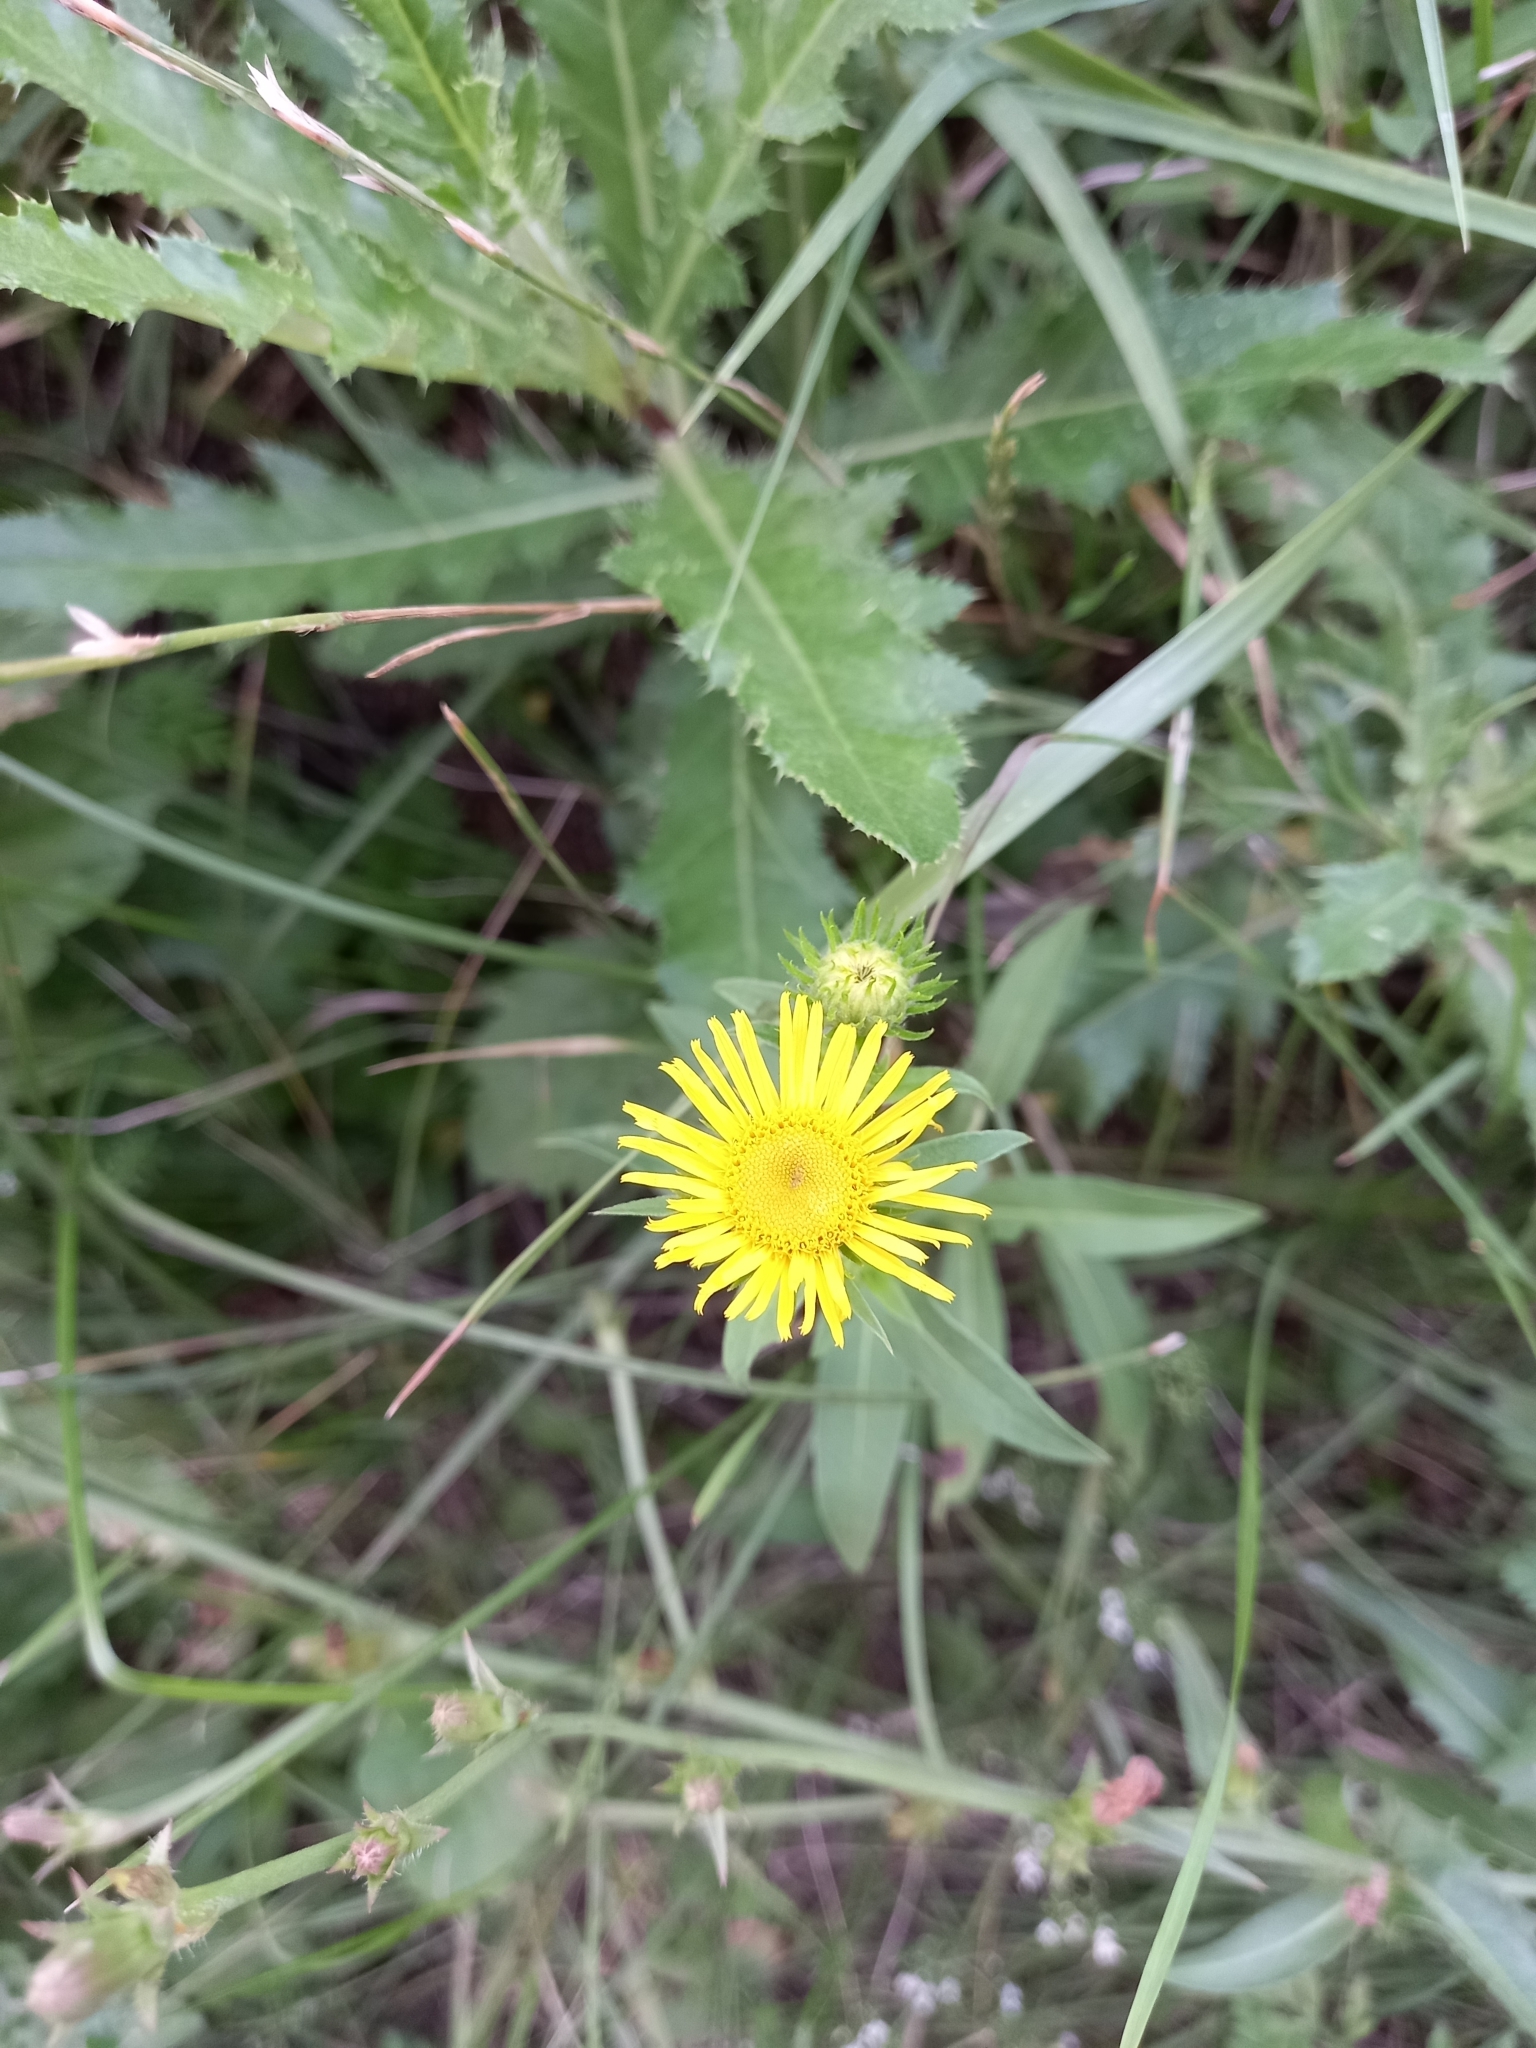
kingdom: Plantae
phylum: Tracheophyta
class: Magnoliopsida
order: Asterales
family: Asteraceae
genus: Pentanema
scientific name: Pentanema britannicum
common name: British elecampane
